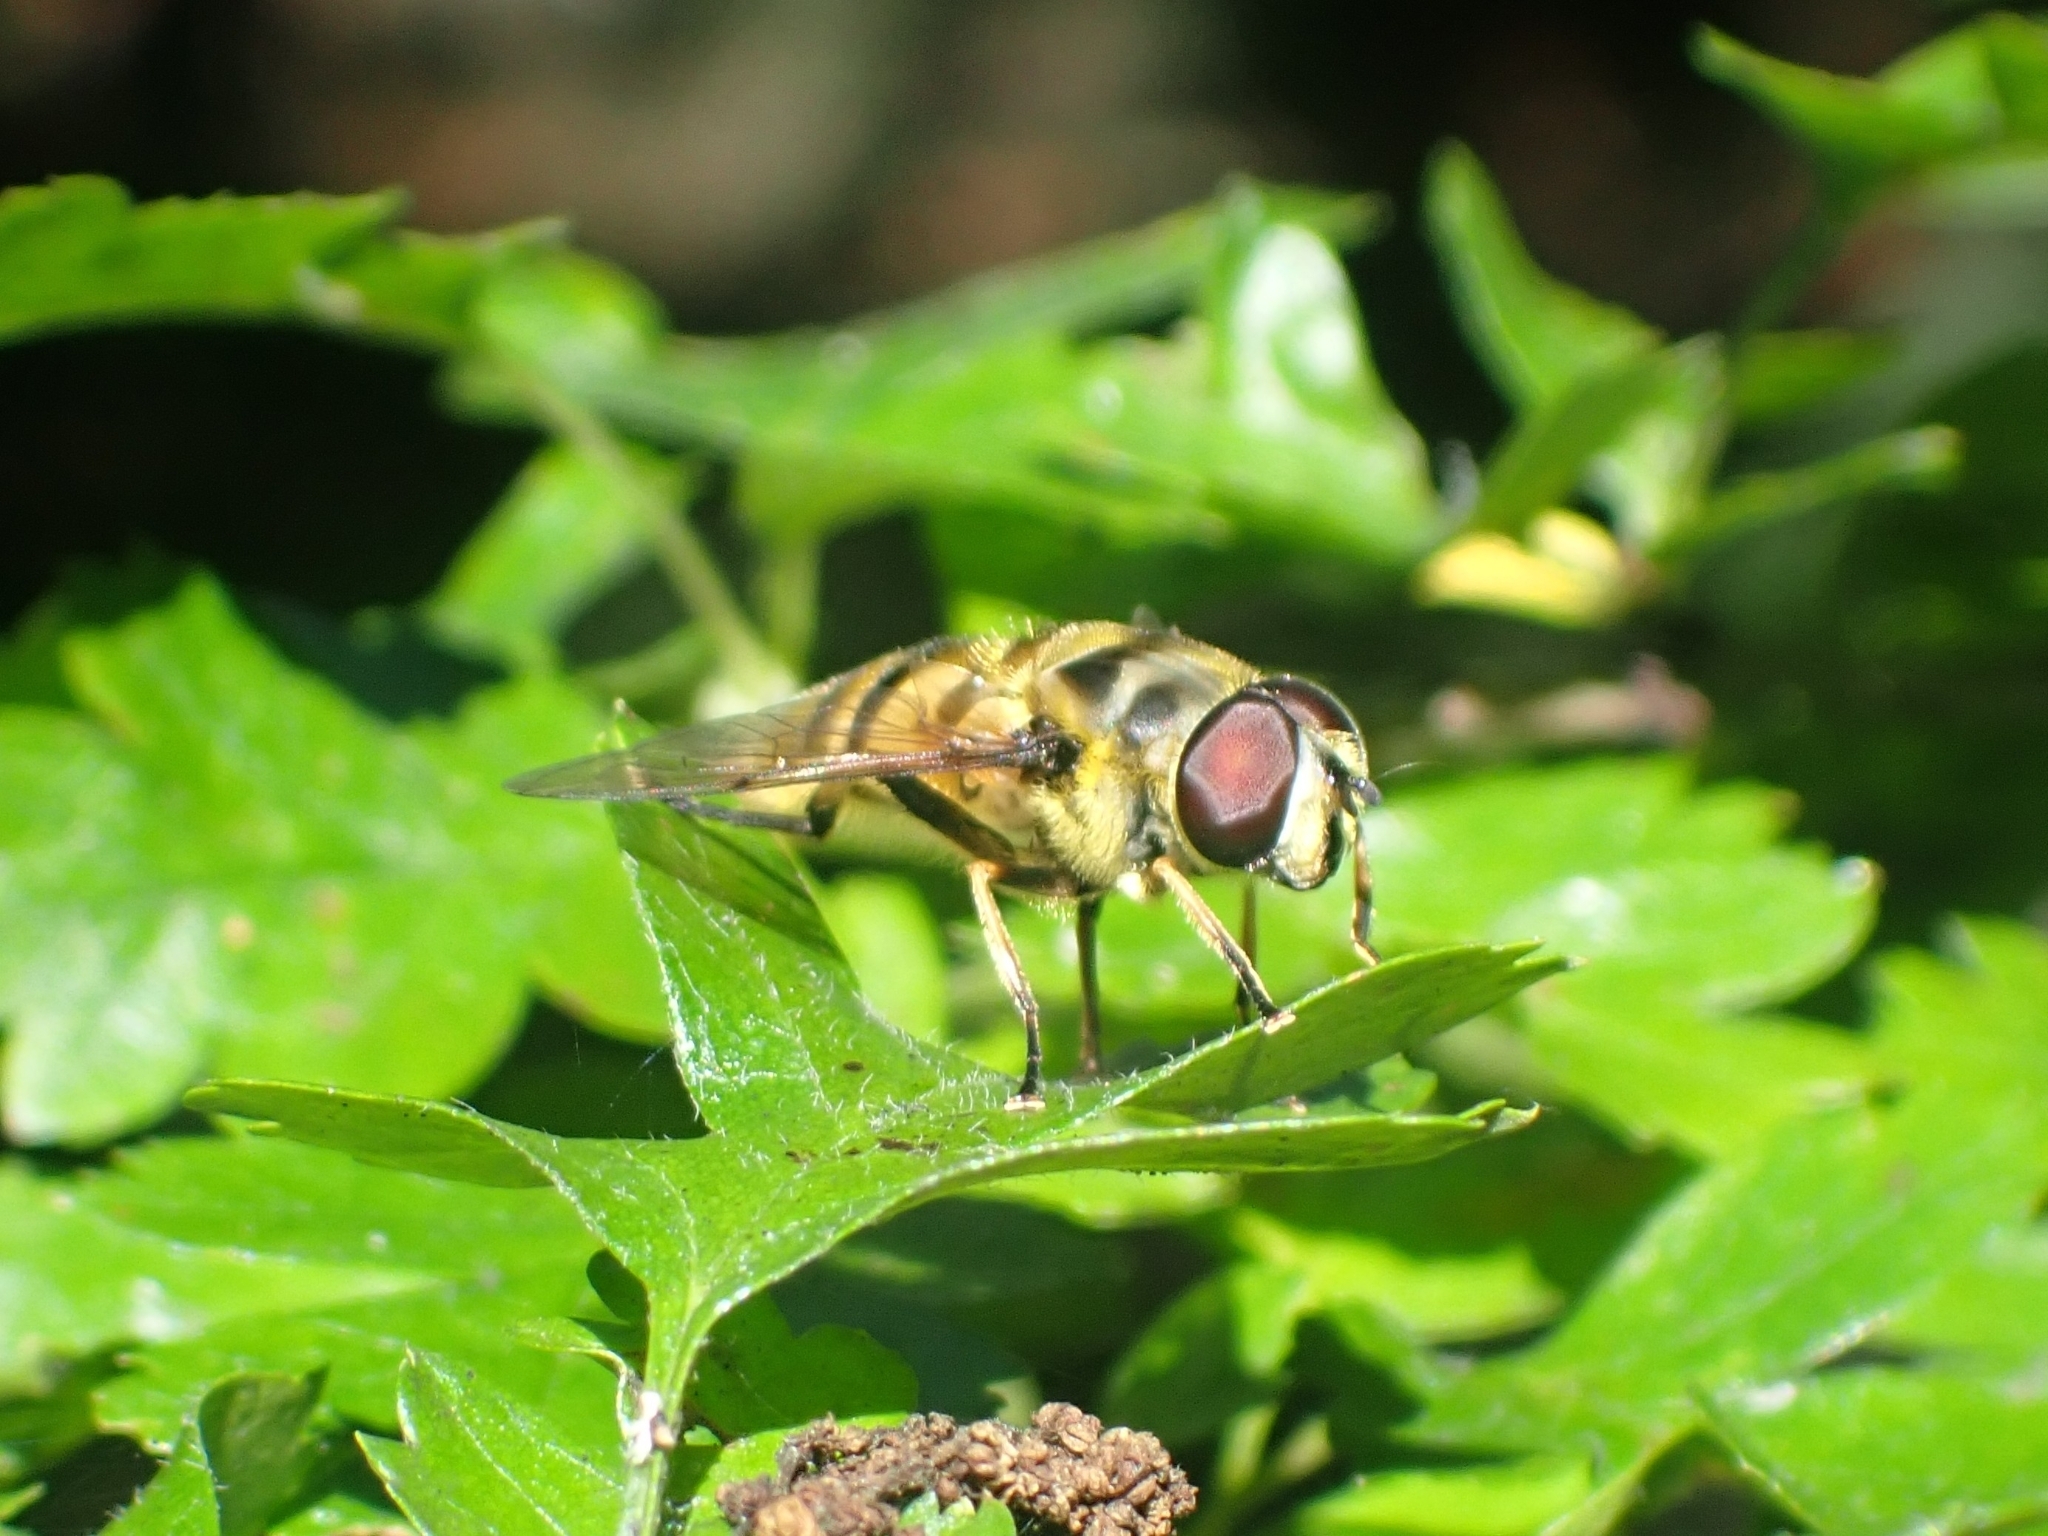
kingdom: Animalia
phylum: Arthropoda
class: Insecta
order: Diptera
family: Syrphidae
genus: Myathropa
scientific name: Myathropa florea
